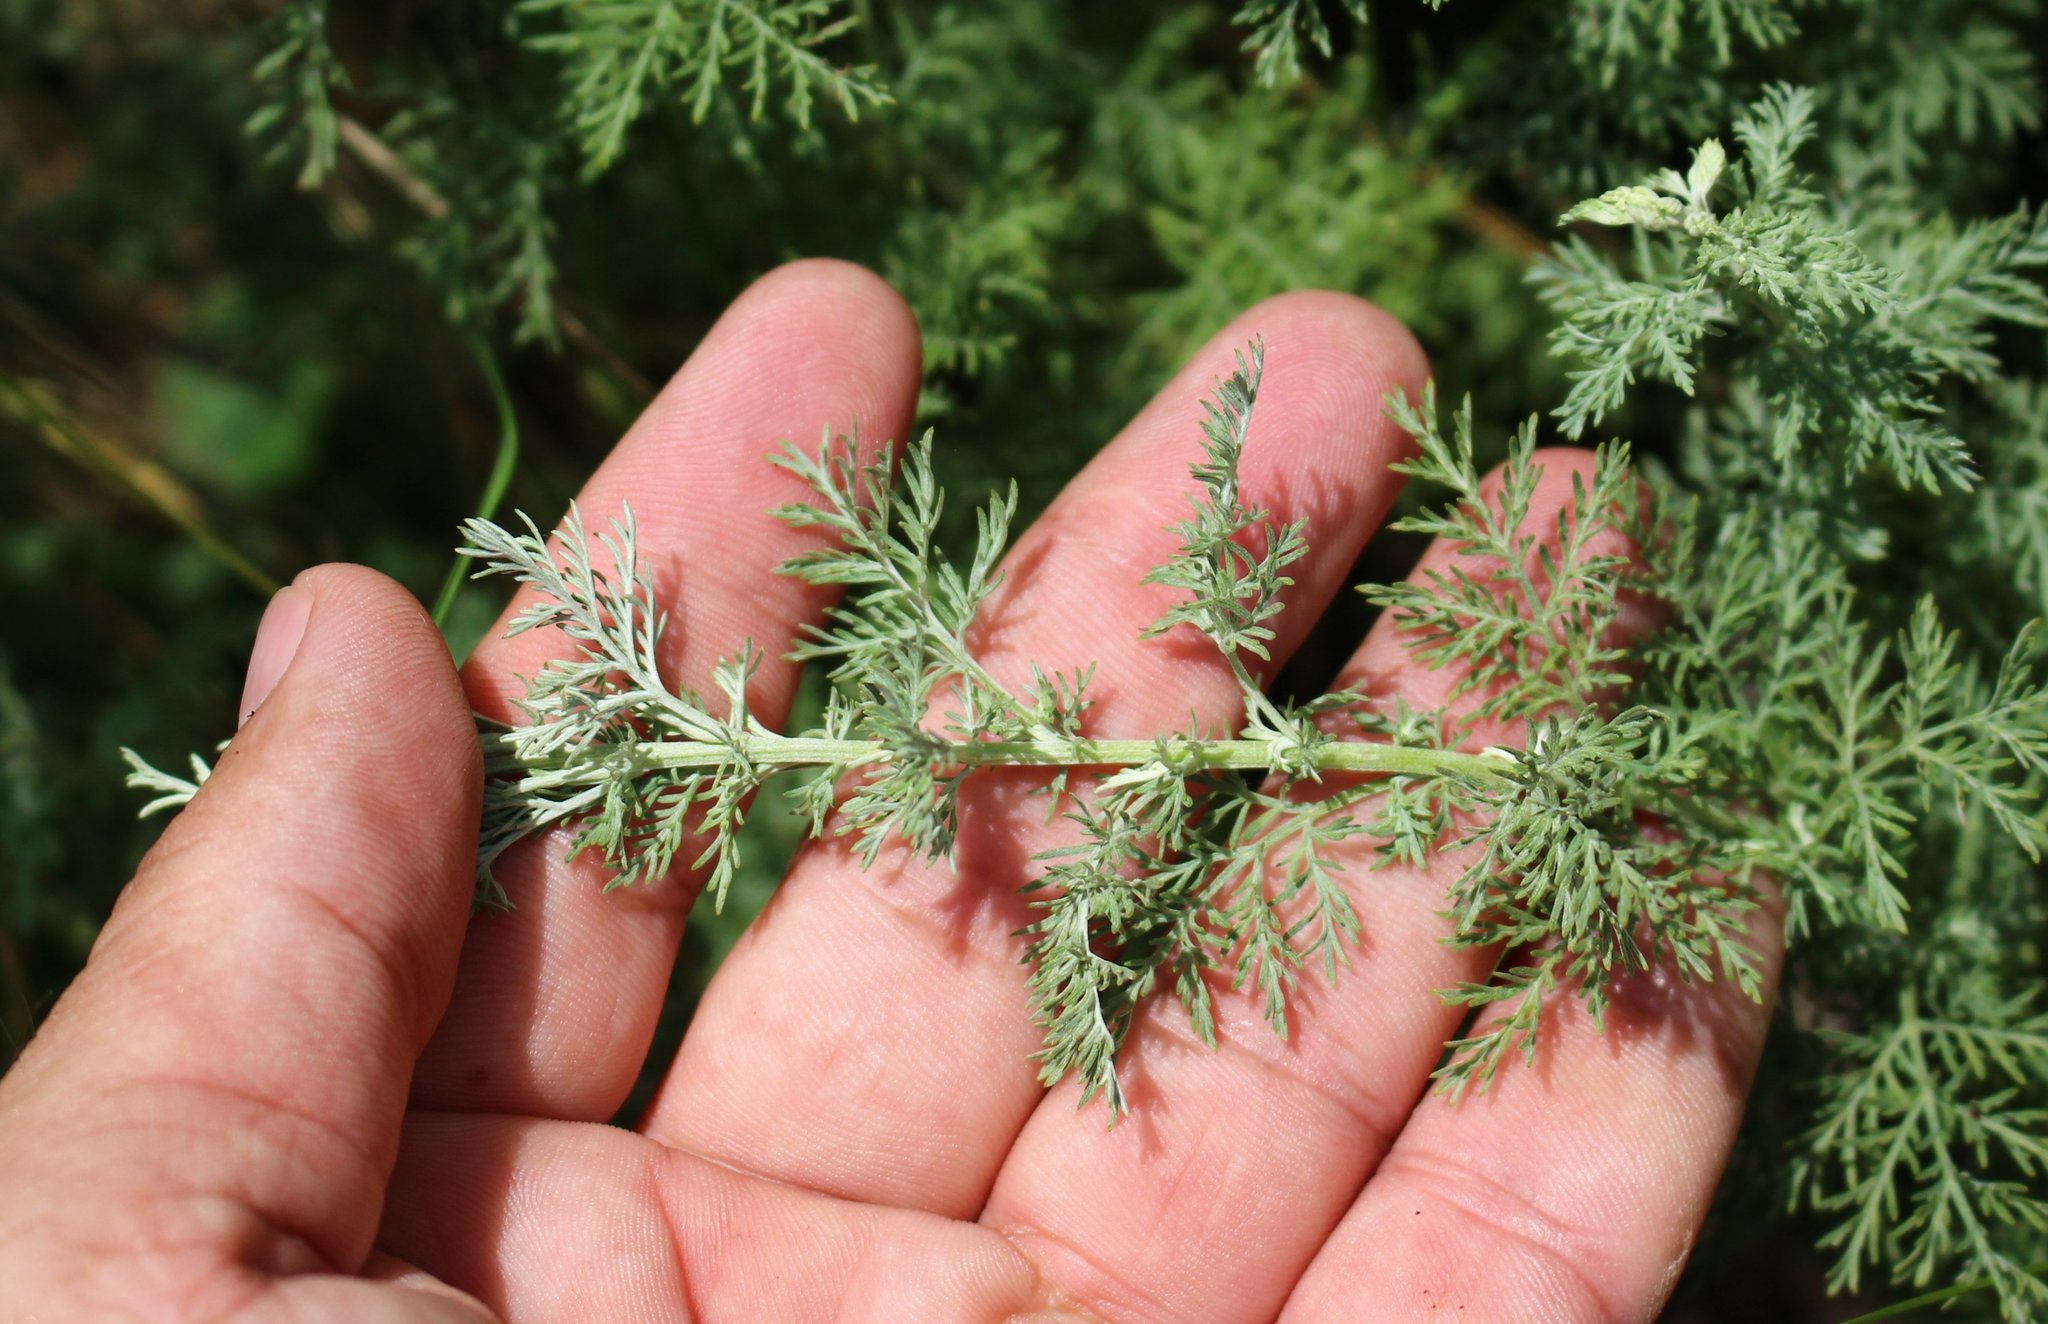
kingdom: Plantae
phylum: Tracheophyta
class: Magnoliopsida
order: Asterales
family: Asteraceae
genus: Artemisia
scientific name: Artemisia austriaca
